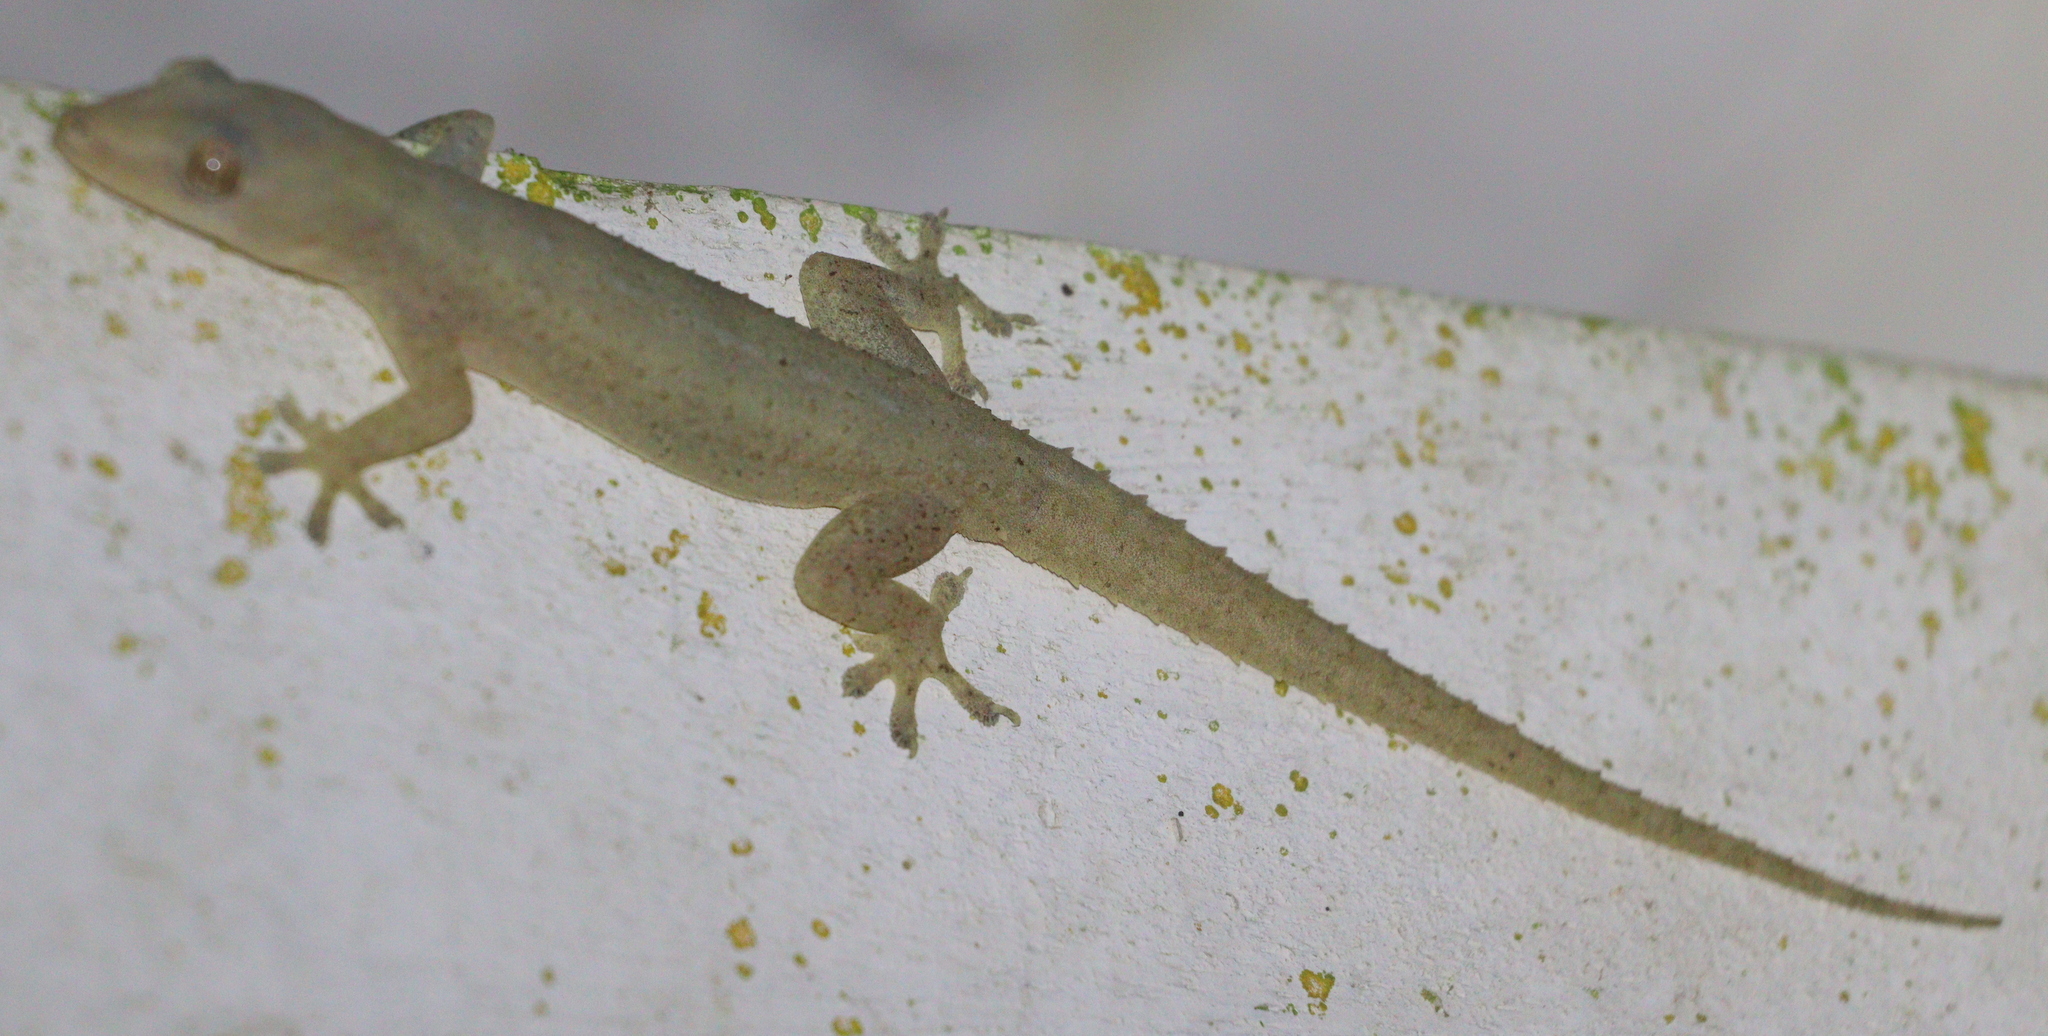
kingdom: Animalia
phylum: Chordata
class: Squamata
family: Gekkonidae
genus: Hemidactylus
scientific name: Hemidactylus frenatus
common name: Common house gecko
